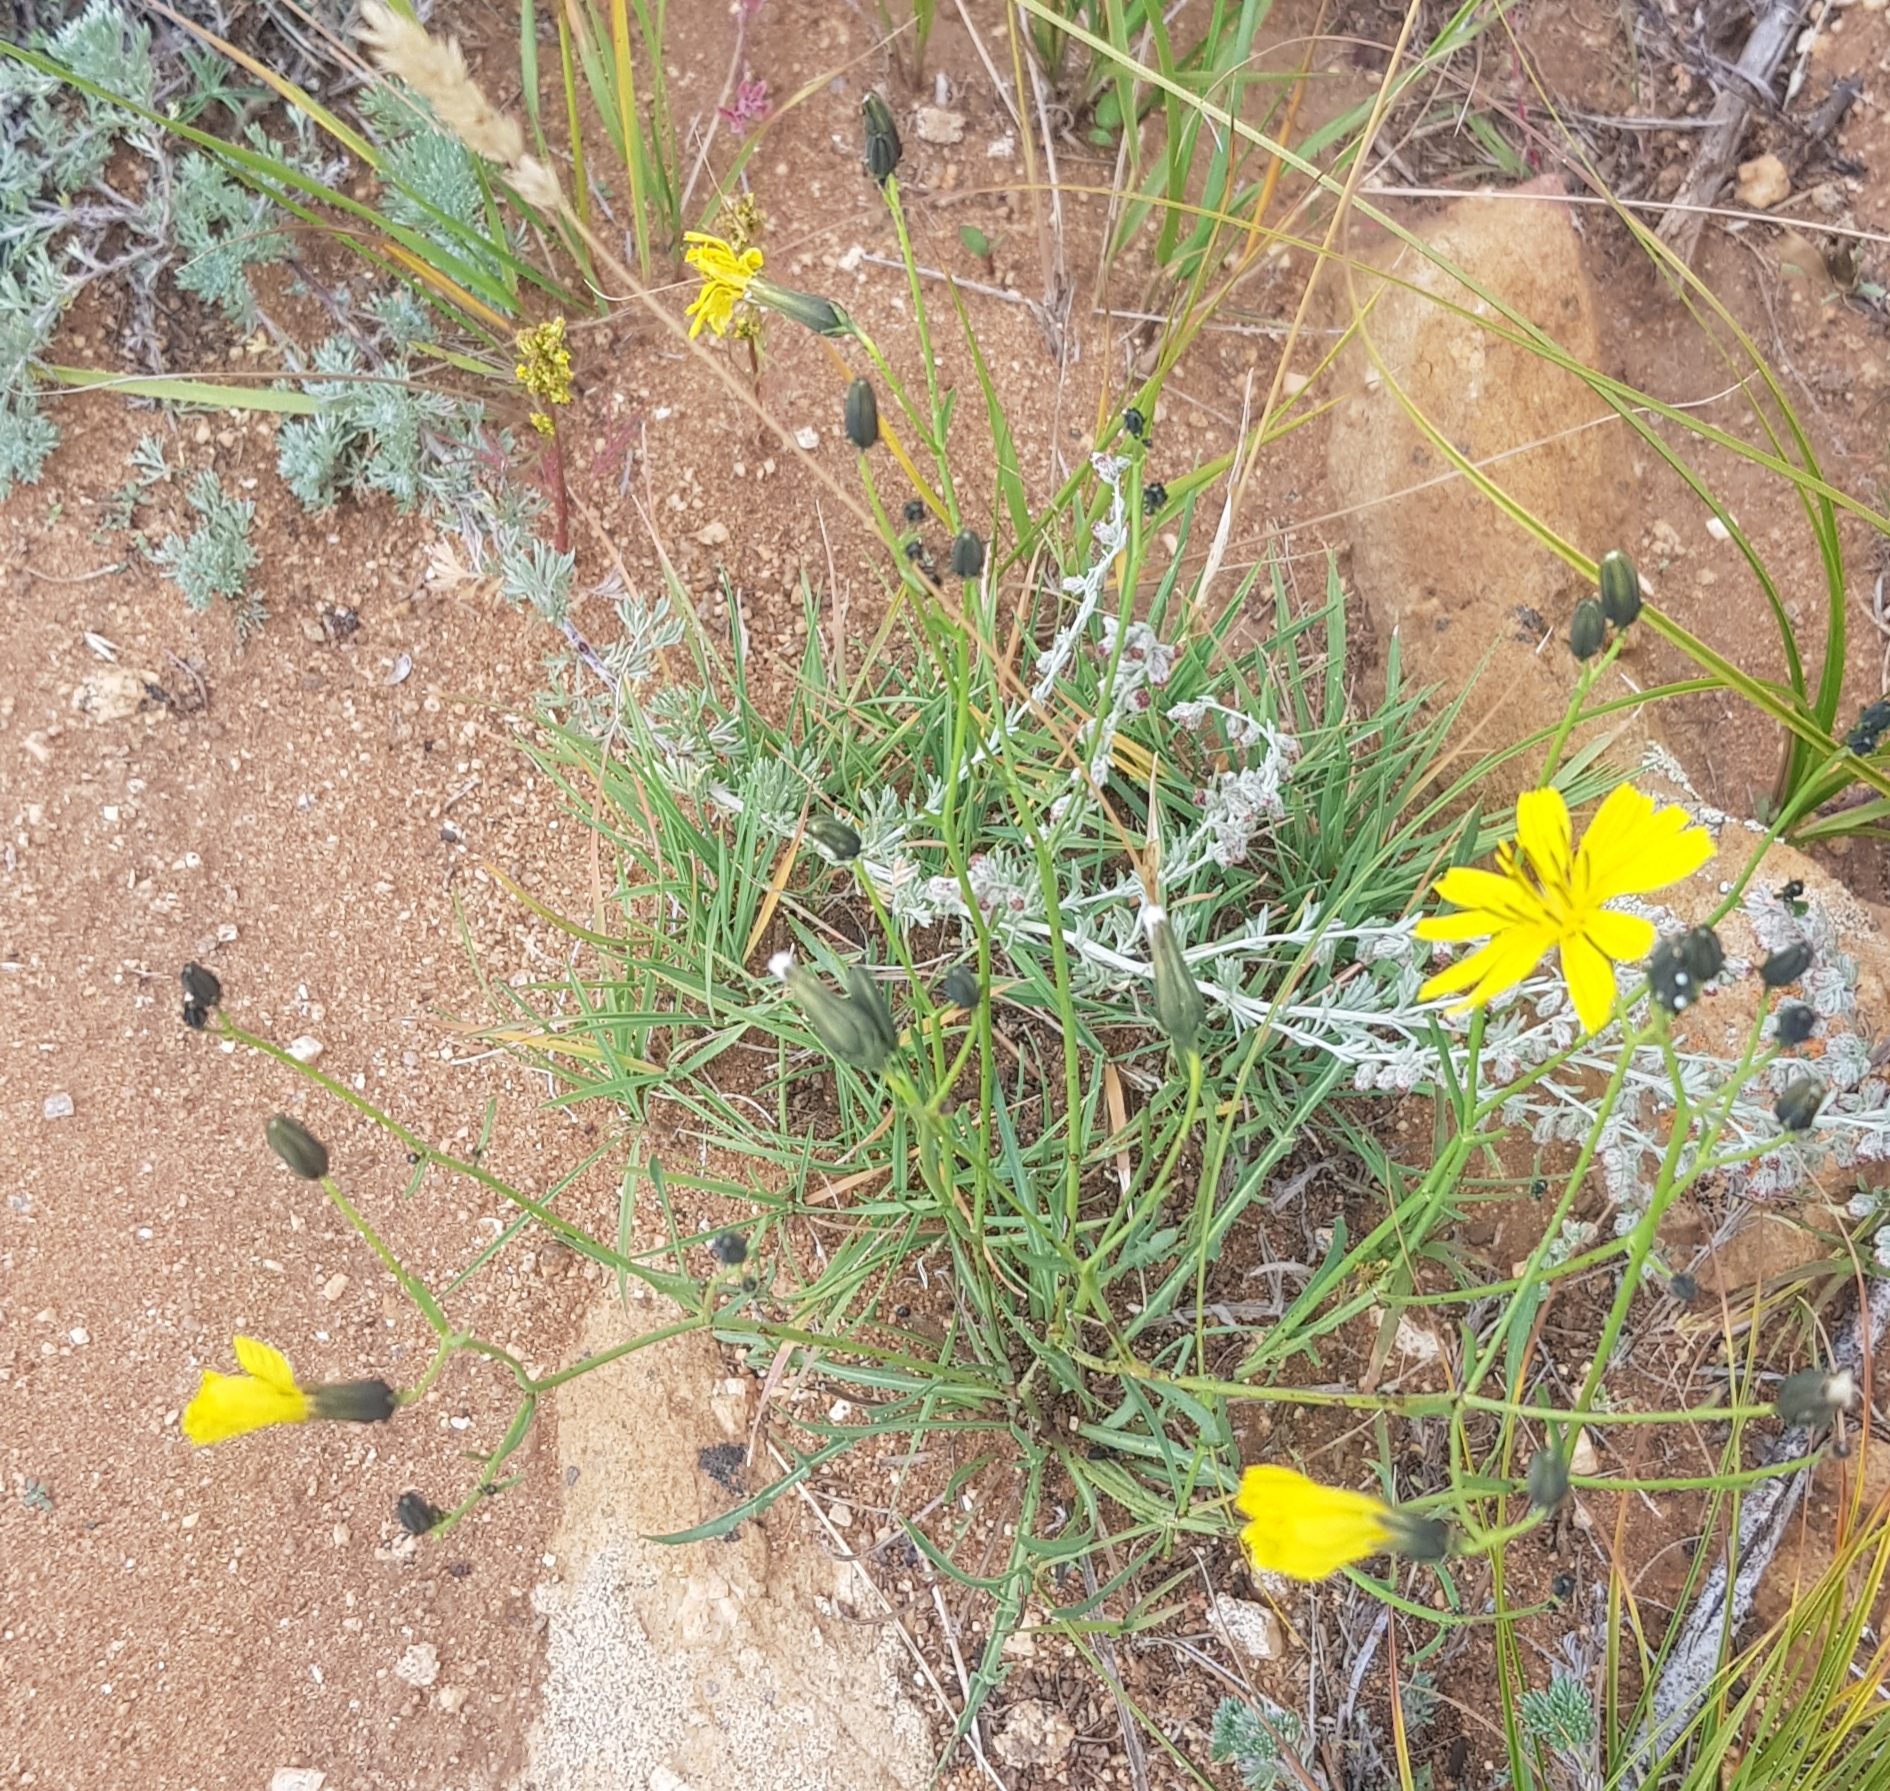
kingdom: Plantae
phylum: Tracheophyta
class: Magnoliopsida
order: Asterales
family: Asteraceae
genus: Crepidiastrum
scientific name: Crepidiastrum tenuifolium
